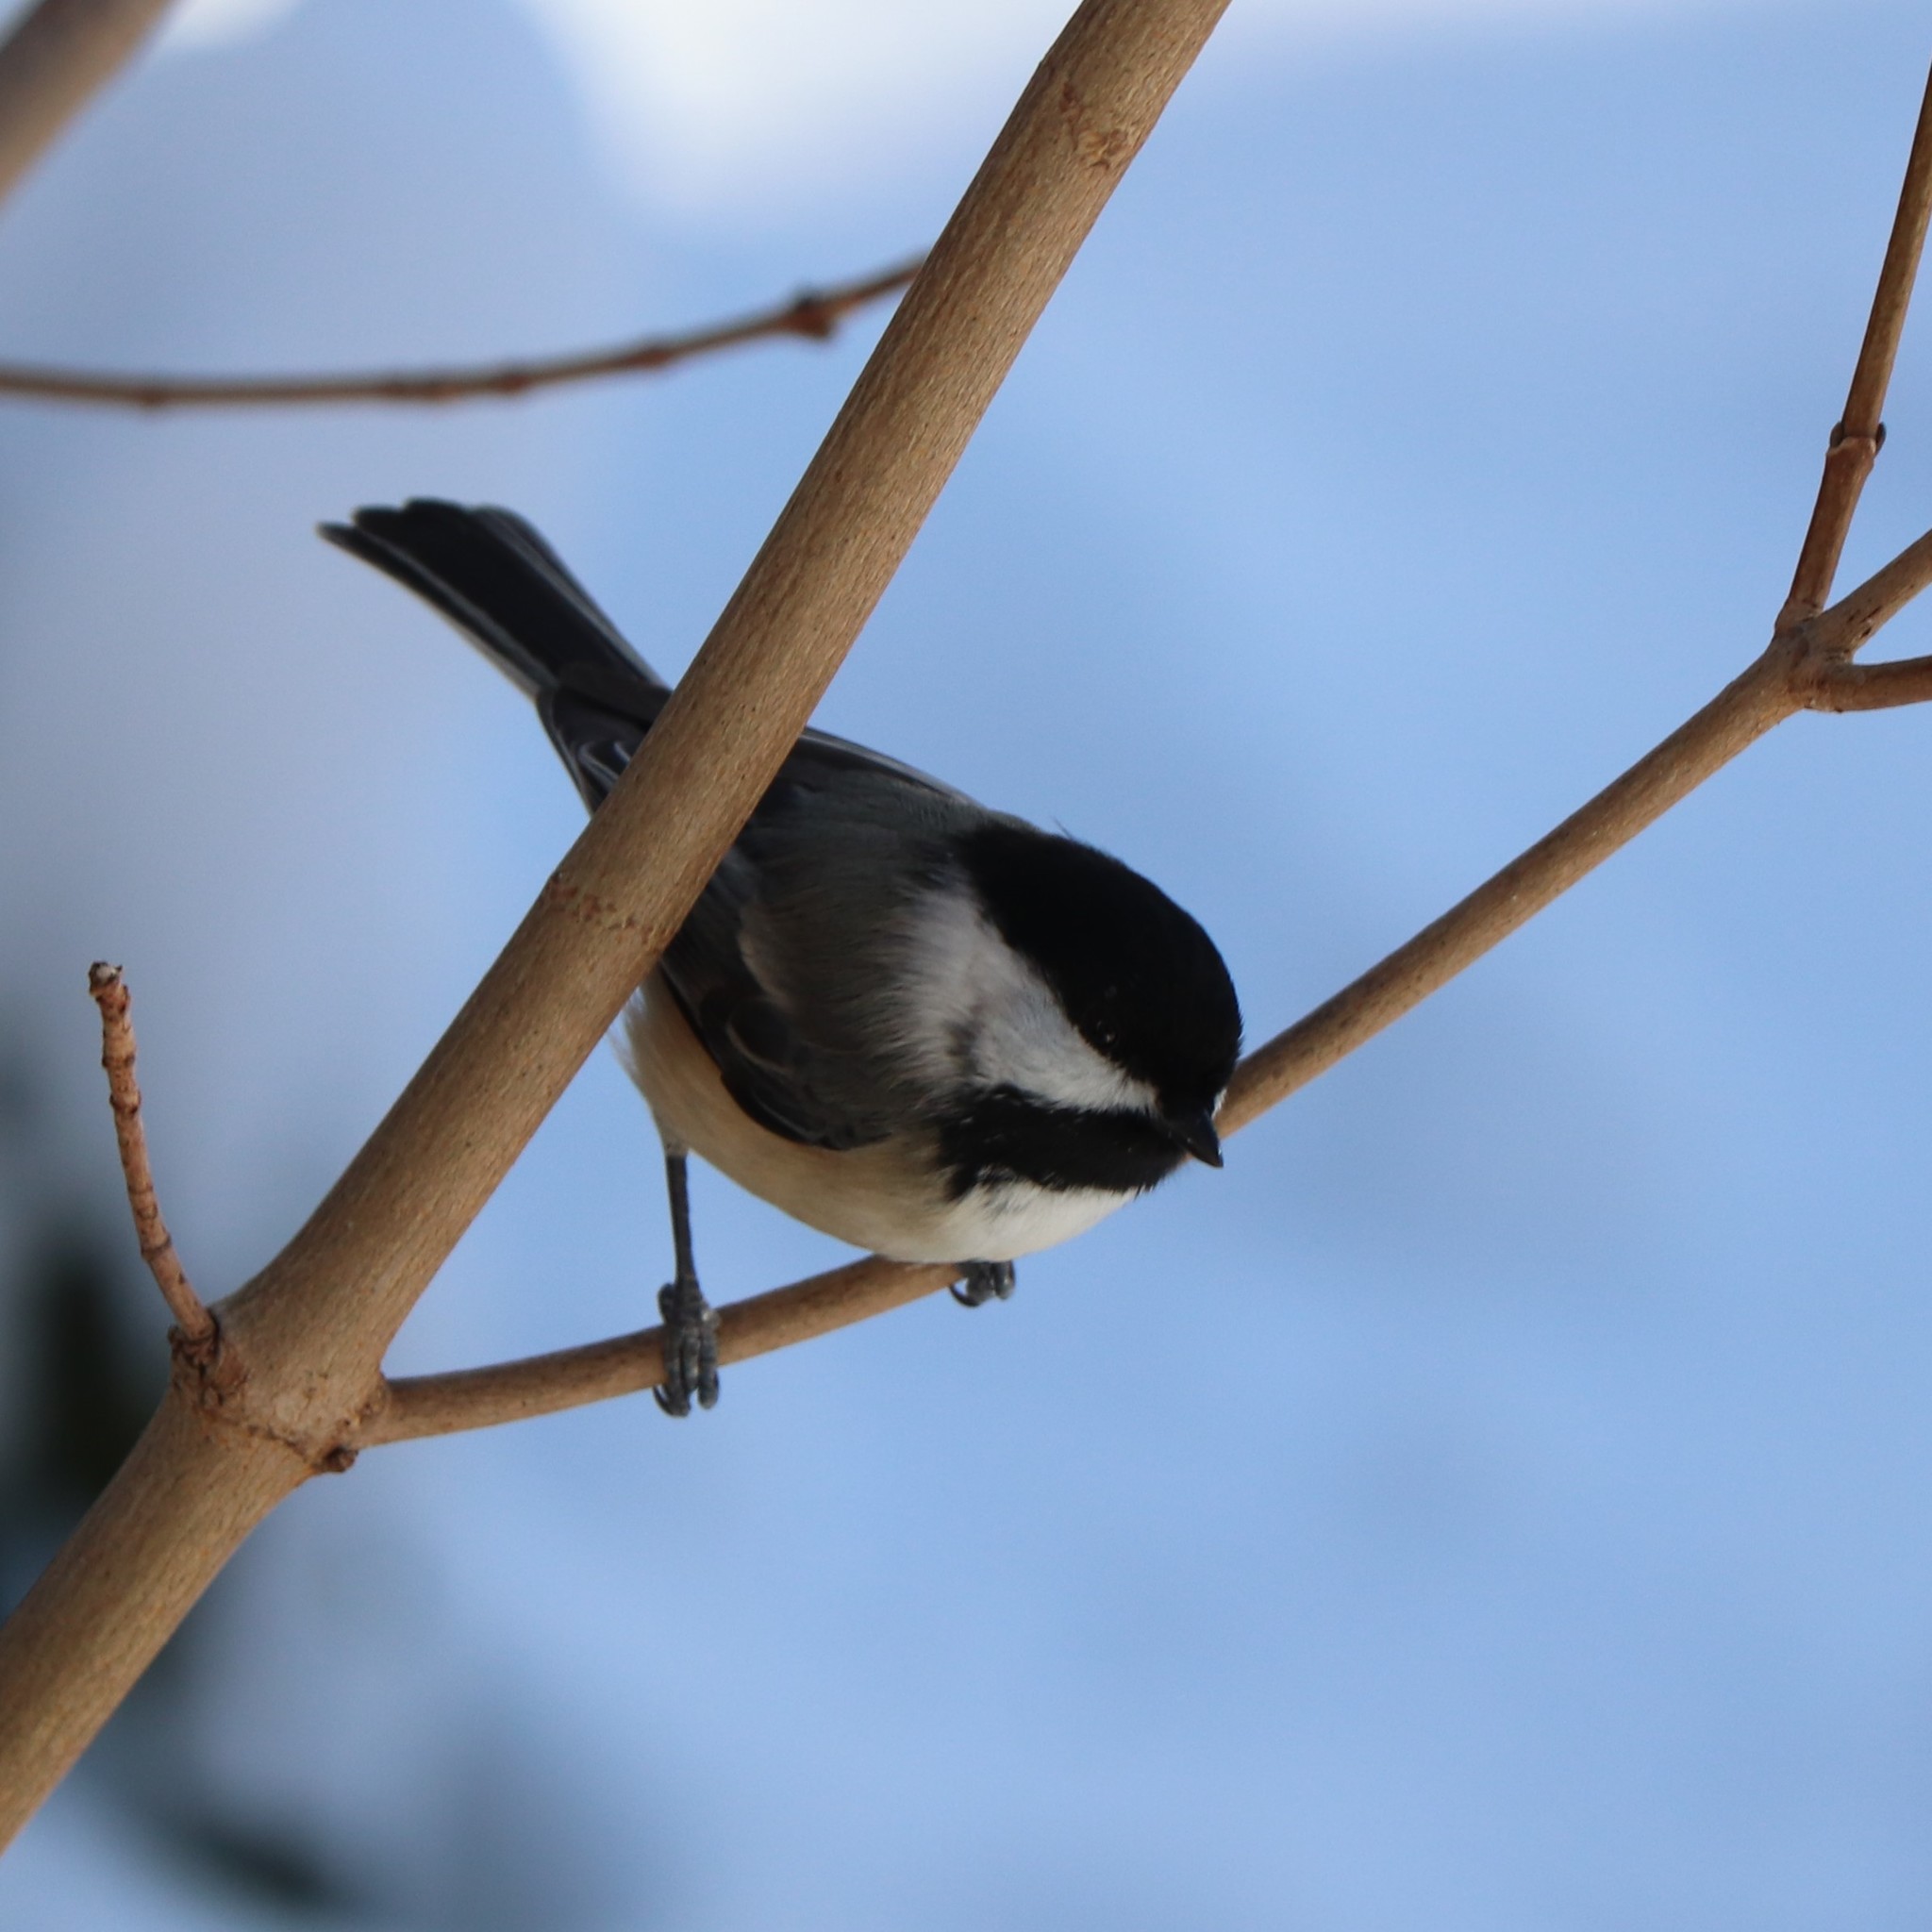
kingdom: Animalia
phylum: Chordata
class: Aves
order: Passeriformes
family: Paridae
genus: Poecile
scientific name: Poecile atricapillus
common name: Black-capped chickadee
